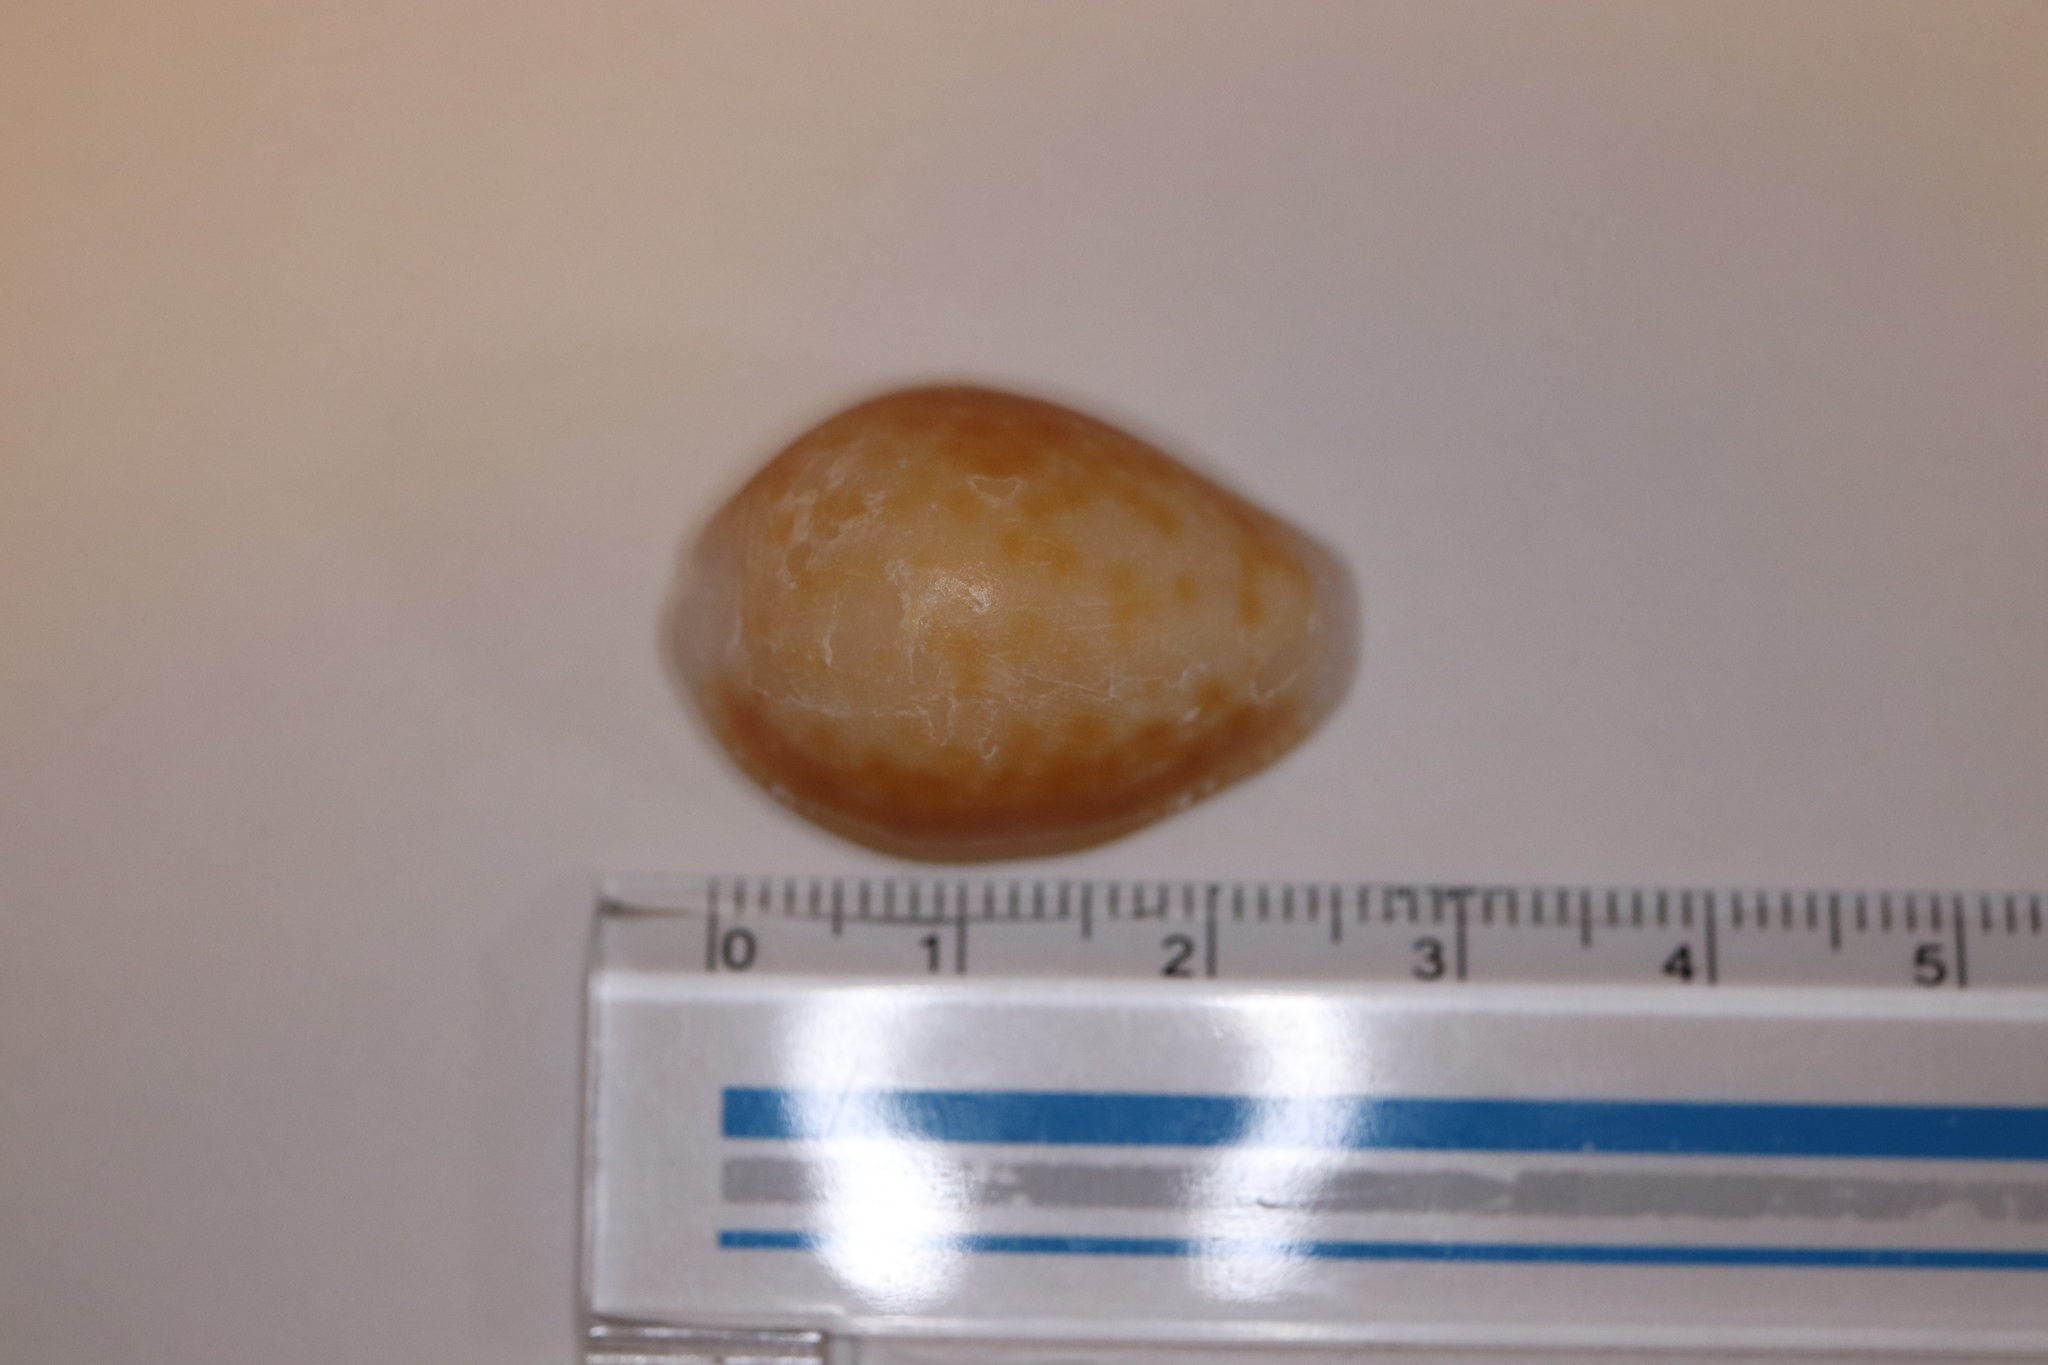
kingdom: Animalia
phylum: Mollusca
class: Gastropoda
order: Littorinimorpha
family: Cypraeidae
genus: Naria
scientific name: Naria helvola
